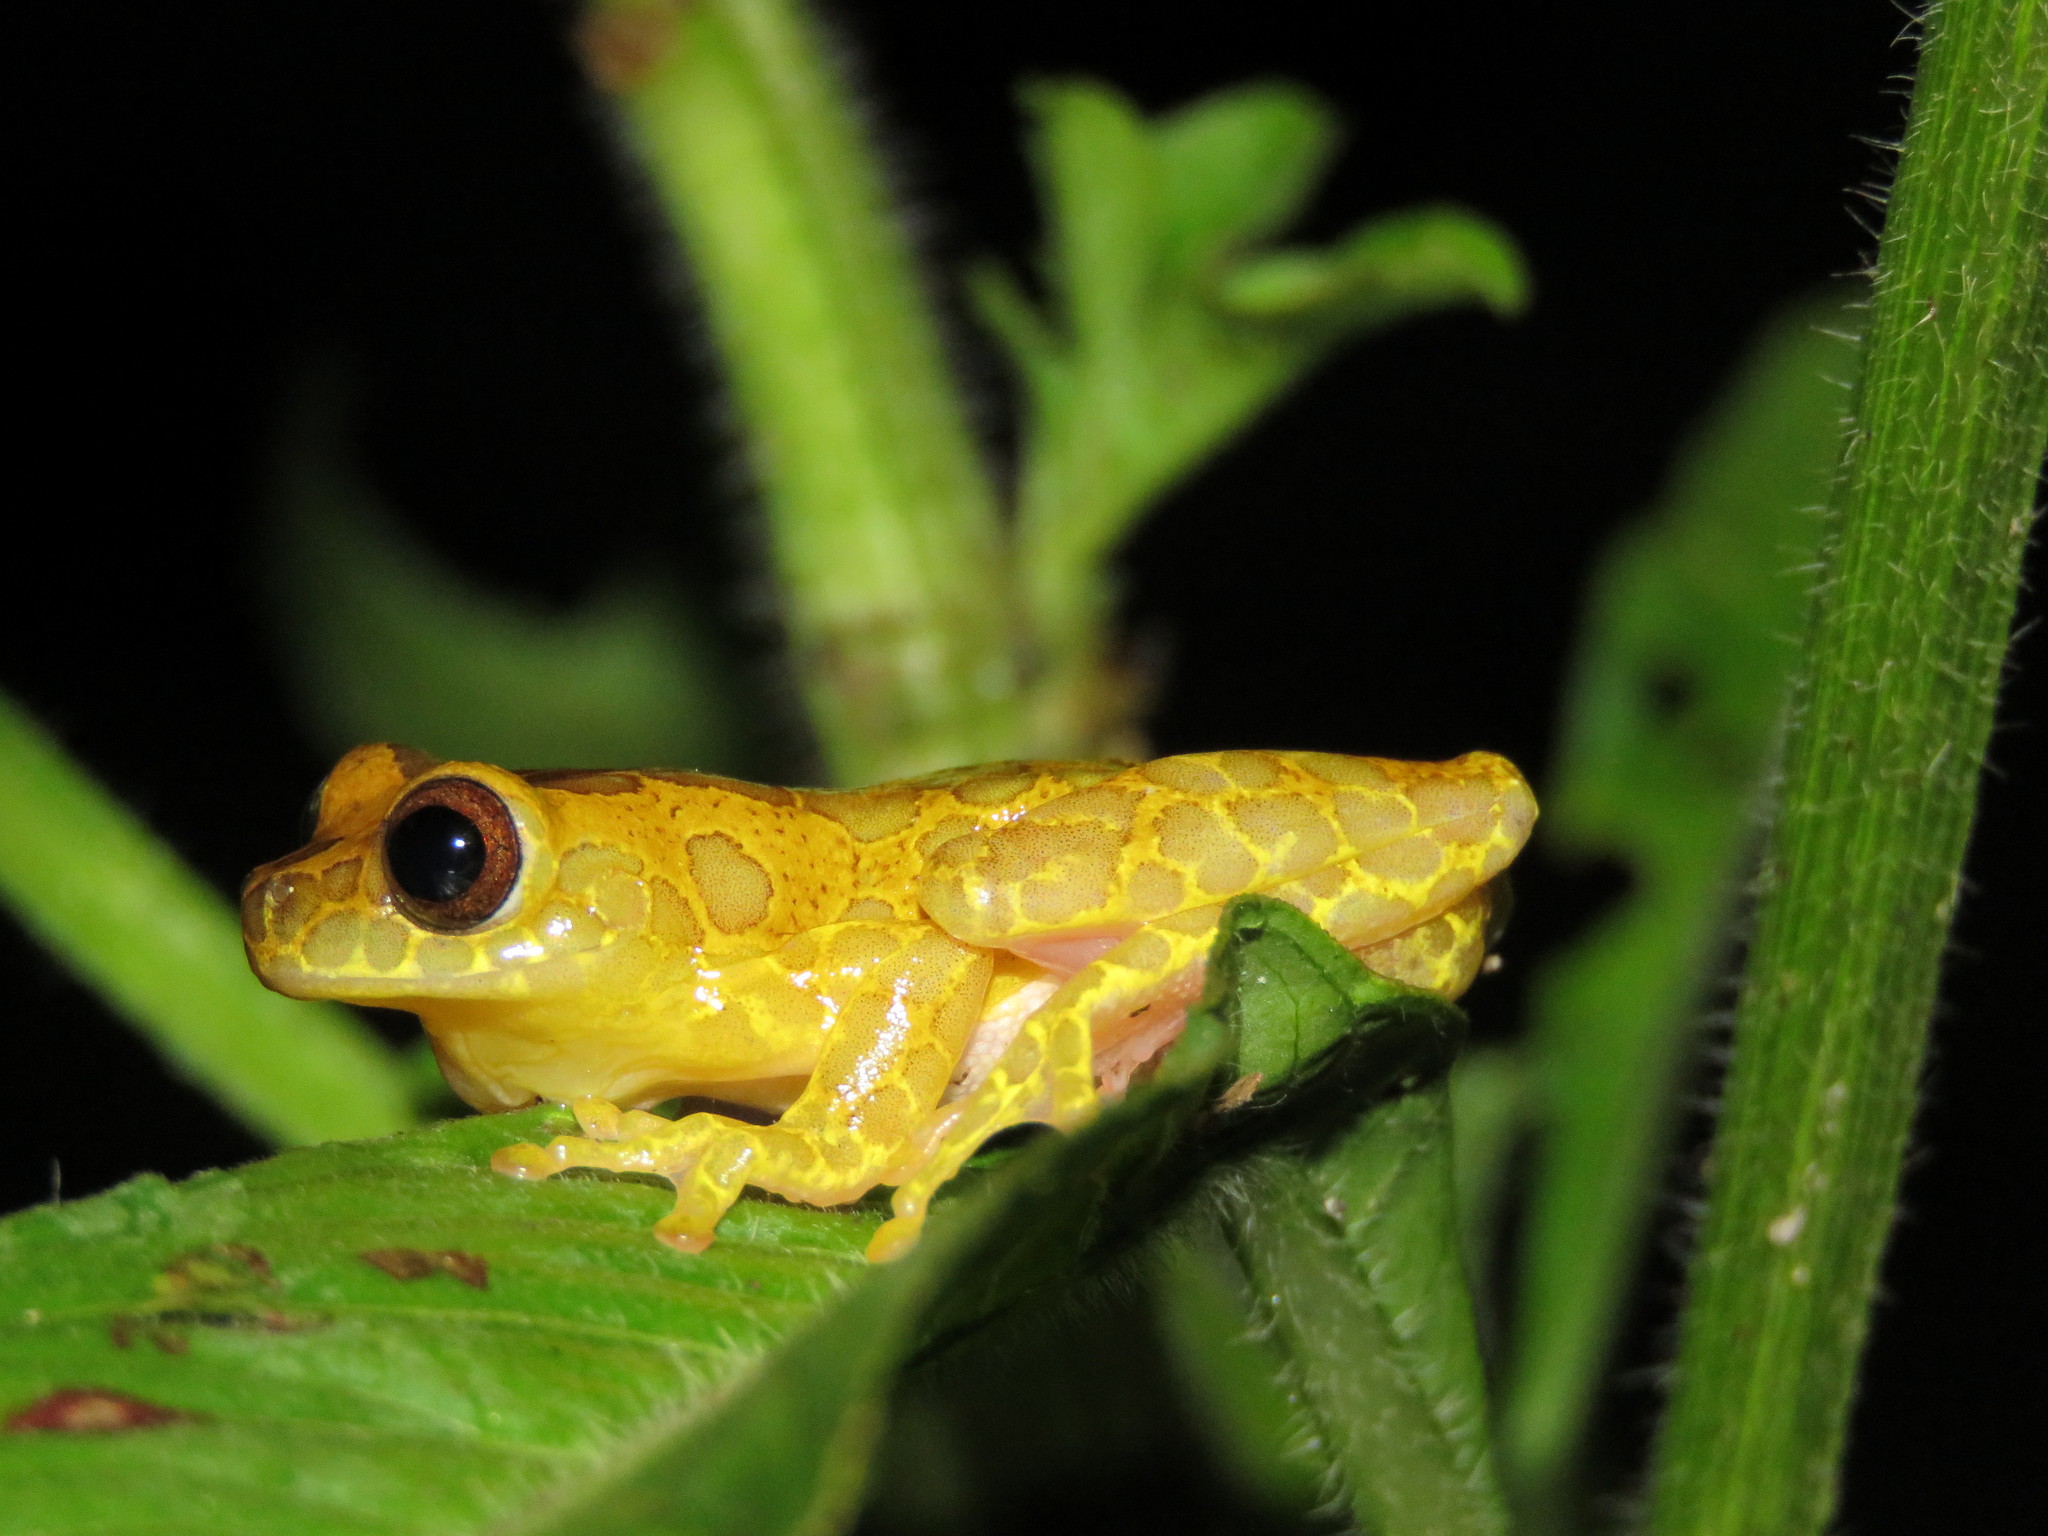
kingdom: Animalia
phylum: Chordata
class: Amphibia
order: Anura
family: Hylidae
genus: Dendropsophus
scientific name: Dendropsophus arndti
